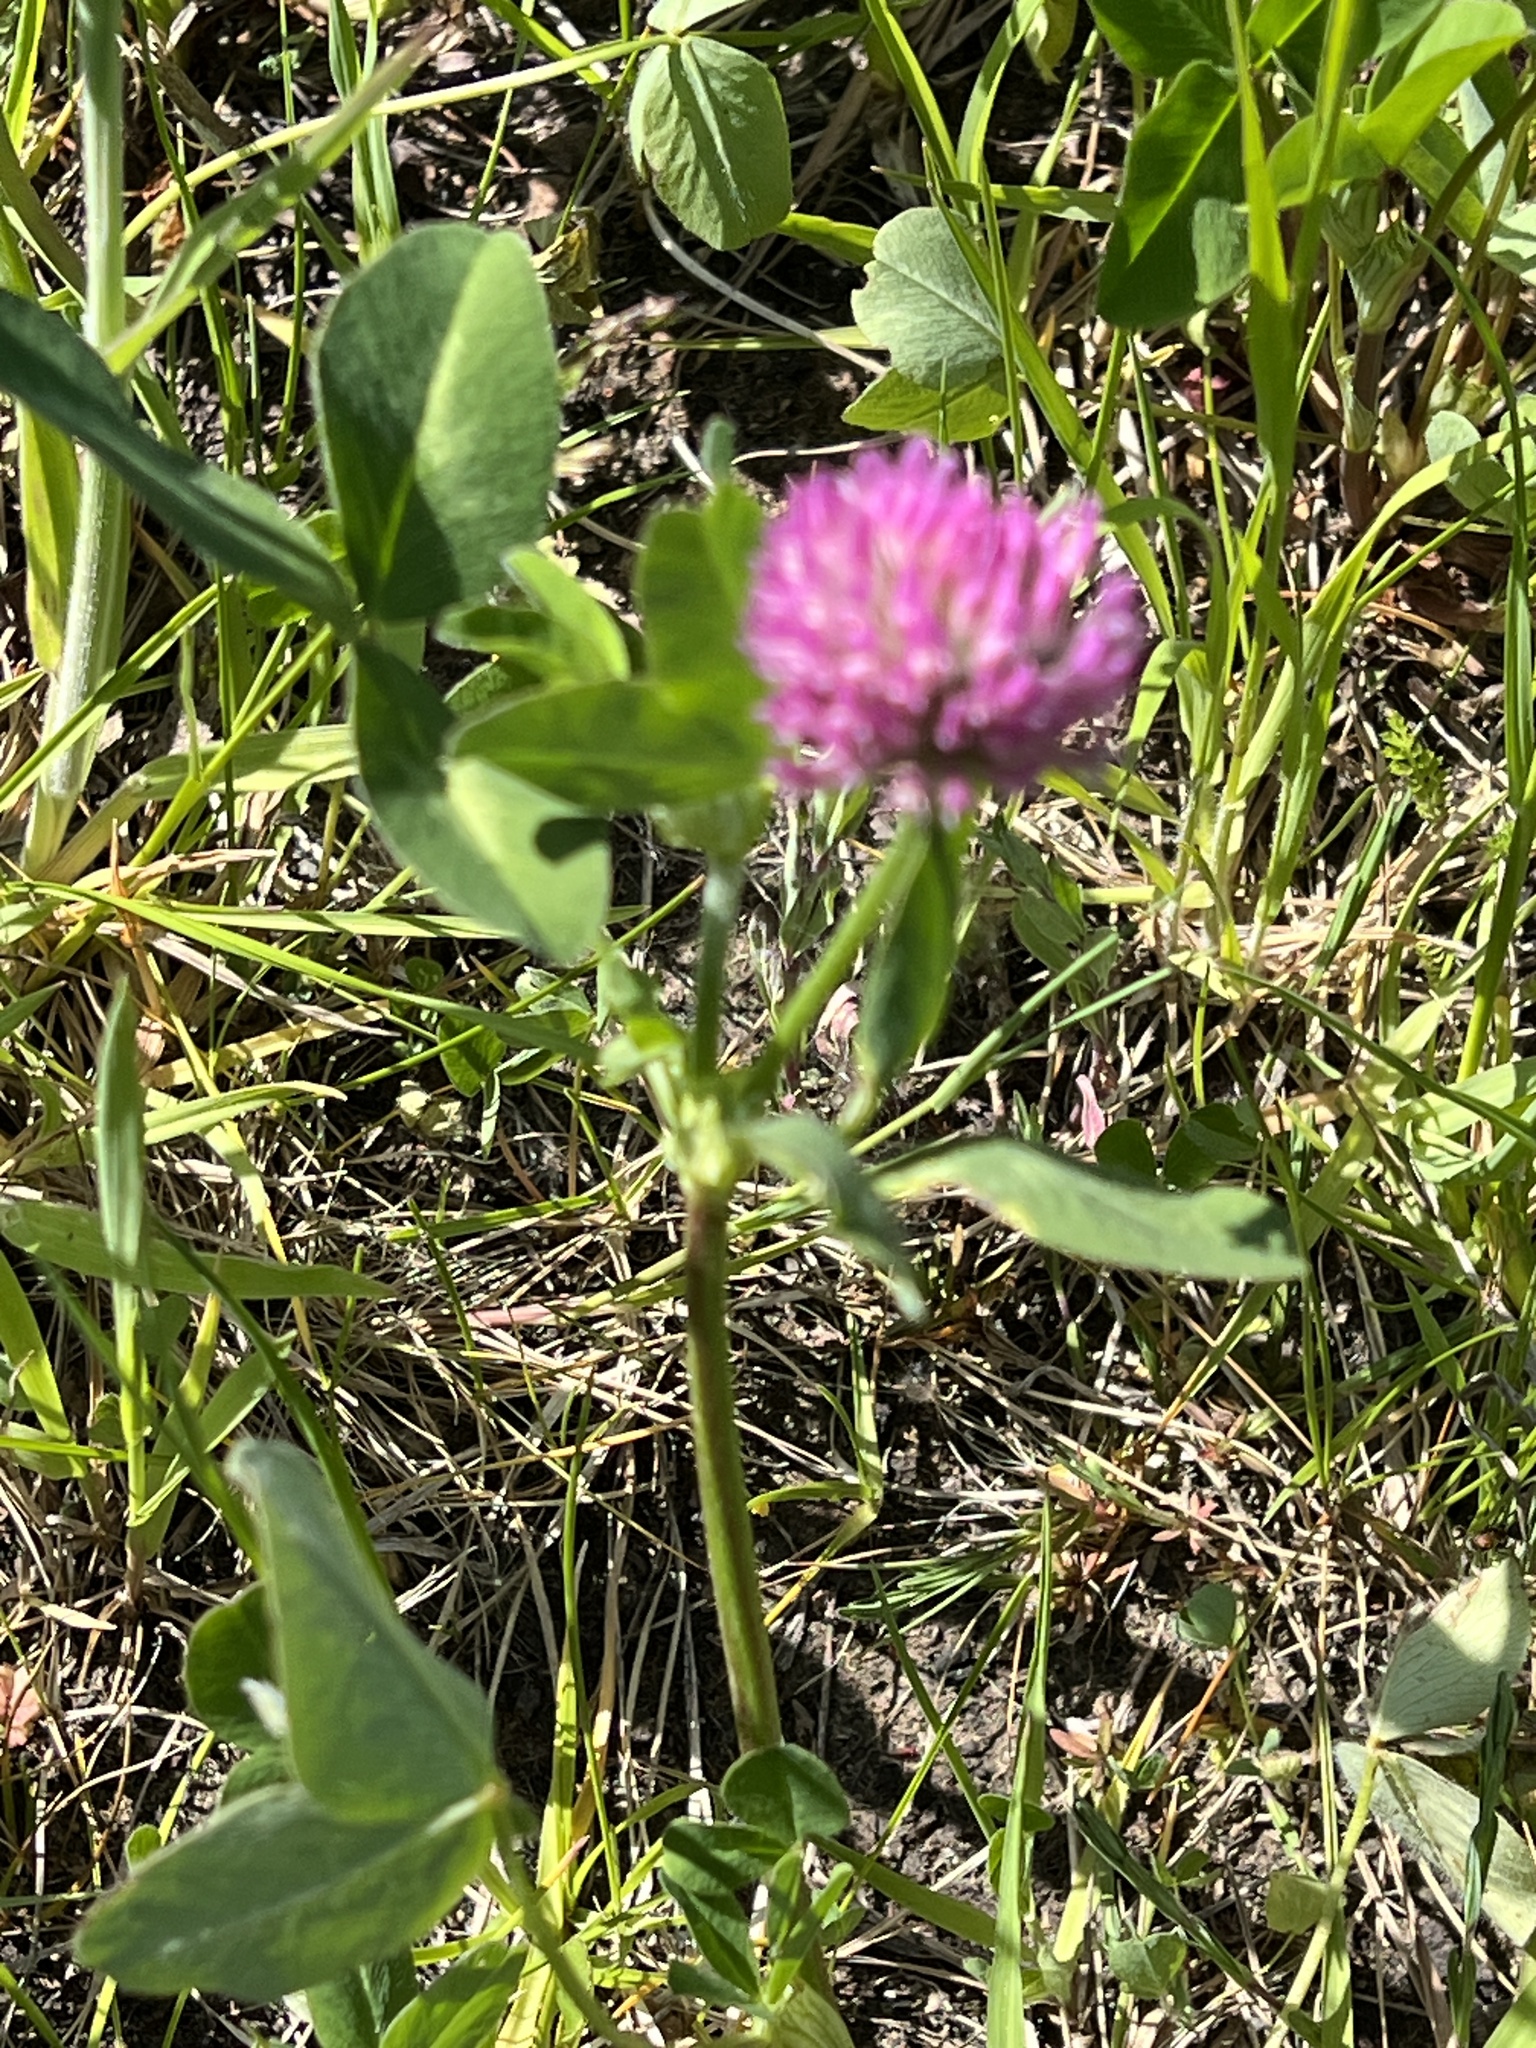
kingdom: Plantae
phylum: Tracheophyta
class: Magnoliopsida
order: Fabales
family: Fabaceae
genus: Trifolium
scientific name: Trifolium pratense
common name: Red clover
